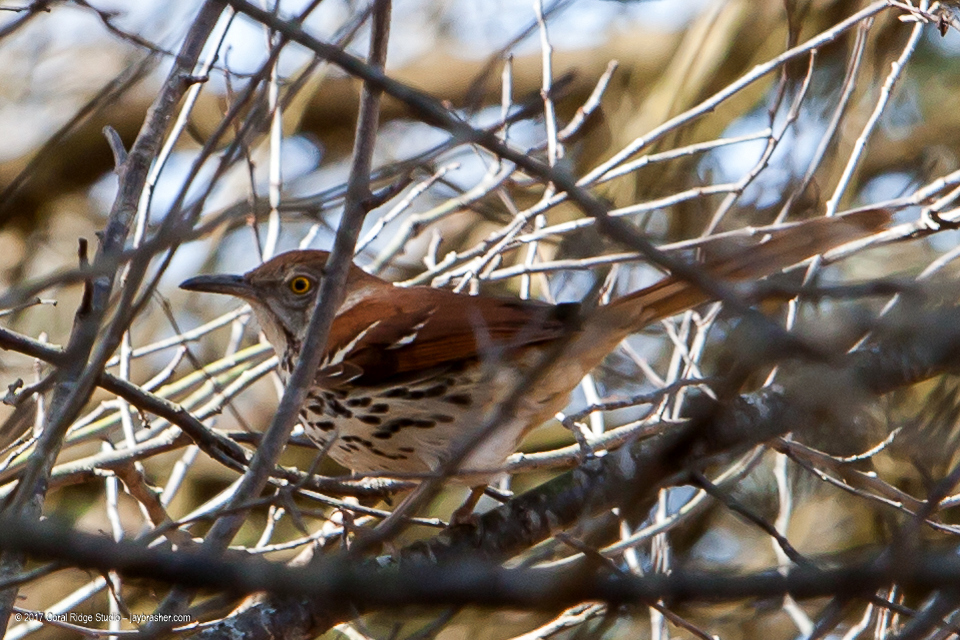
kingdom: Animalia
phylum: Chordata
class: Aves
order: Passeriformes
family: Mimidae
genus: Toxostoma
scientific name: Toxostoma rufum
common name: Brown thrasher
